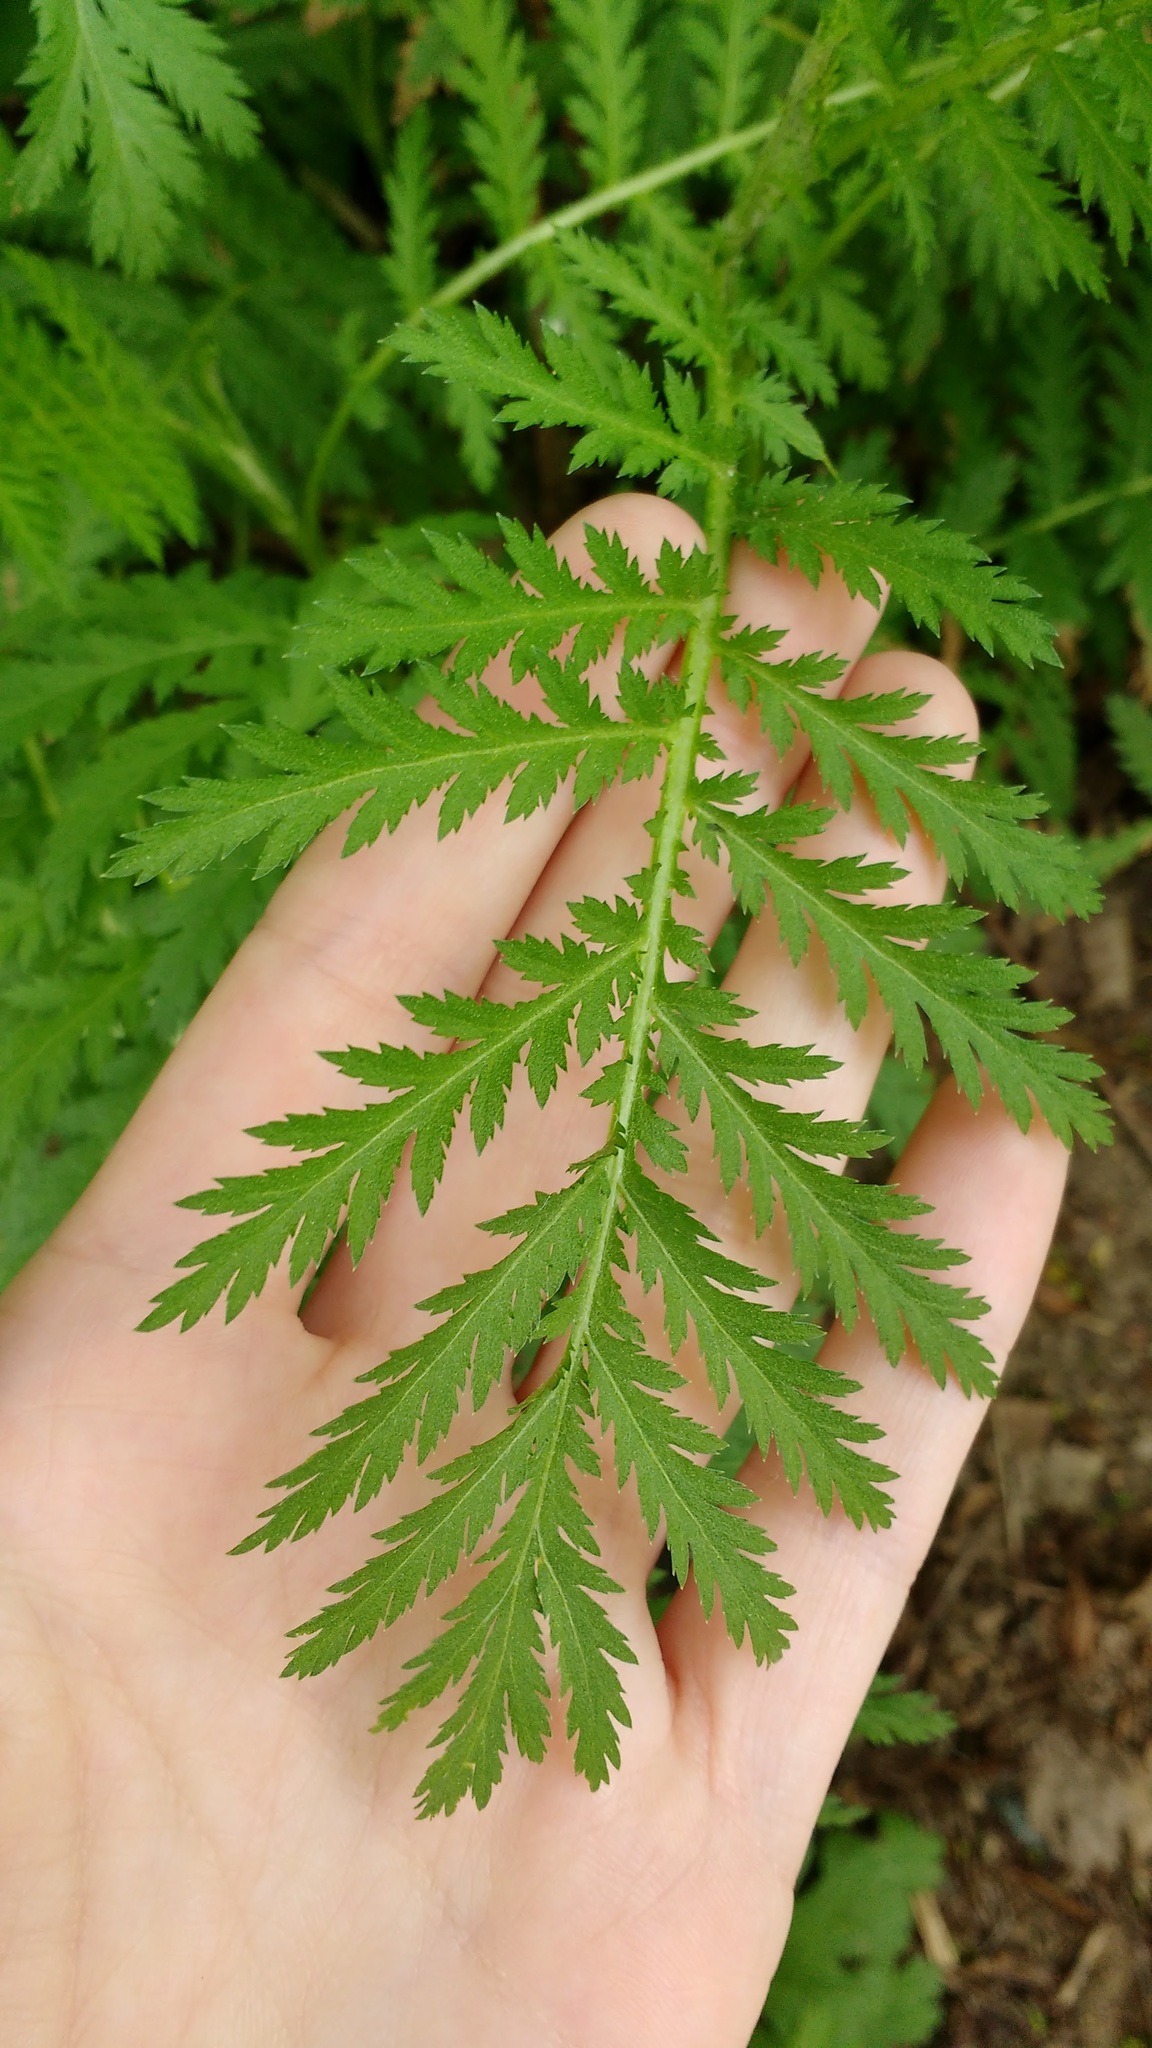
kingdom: Plantae
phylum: Tracheophyta
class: Magnoliopsida
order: Asterales
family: Asteraceae
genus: Tanacetum
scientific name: Tanacetum vulgare
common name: Common tansy
